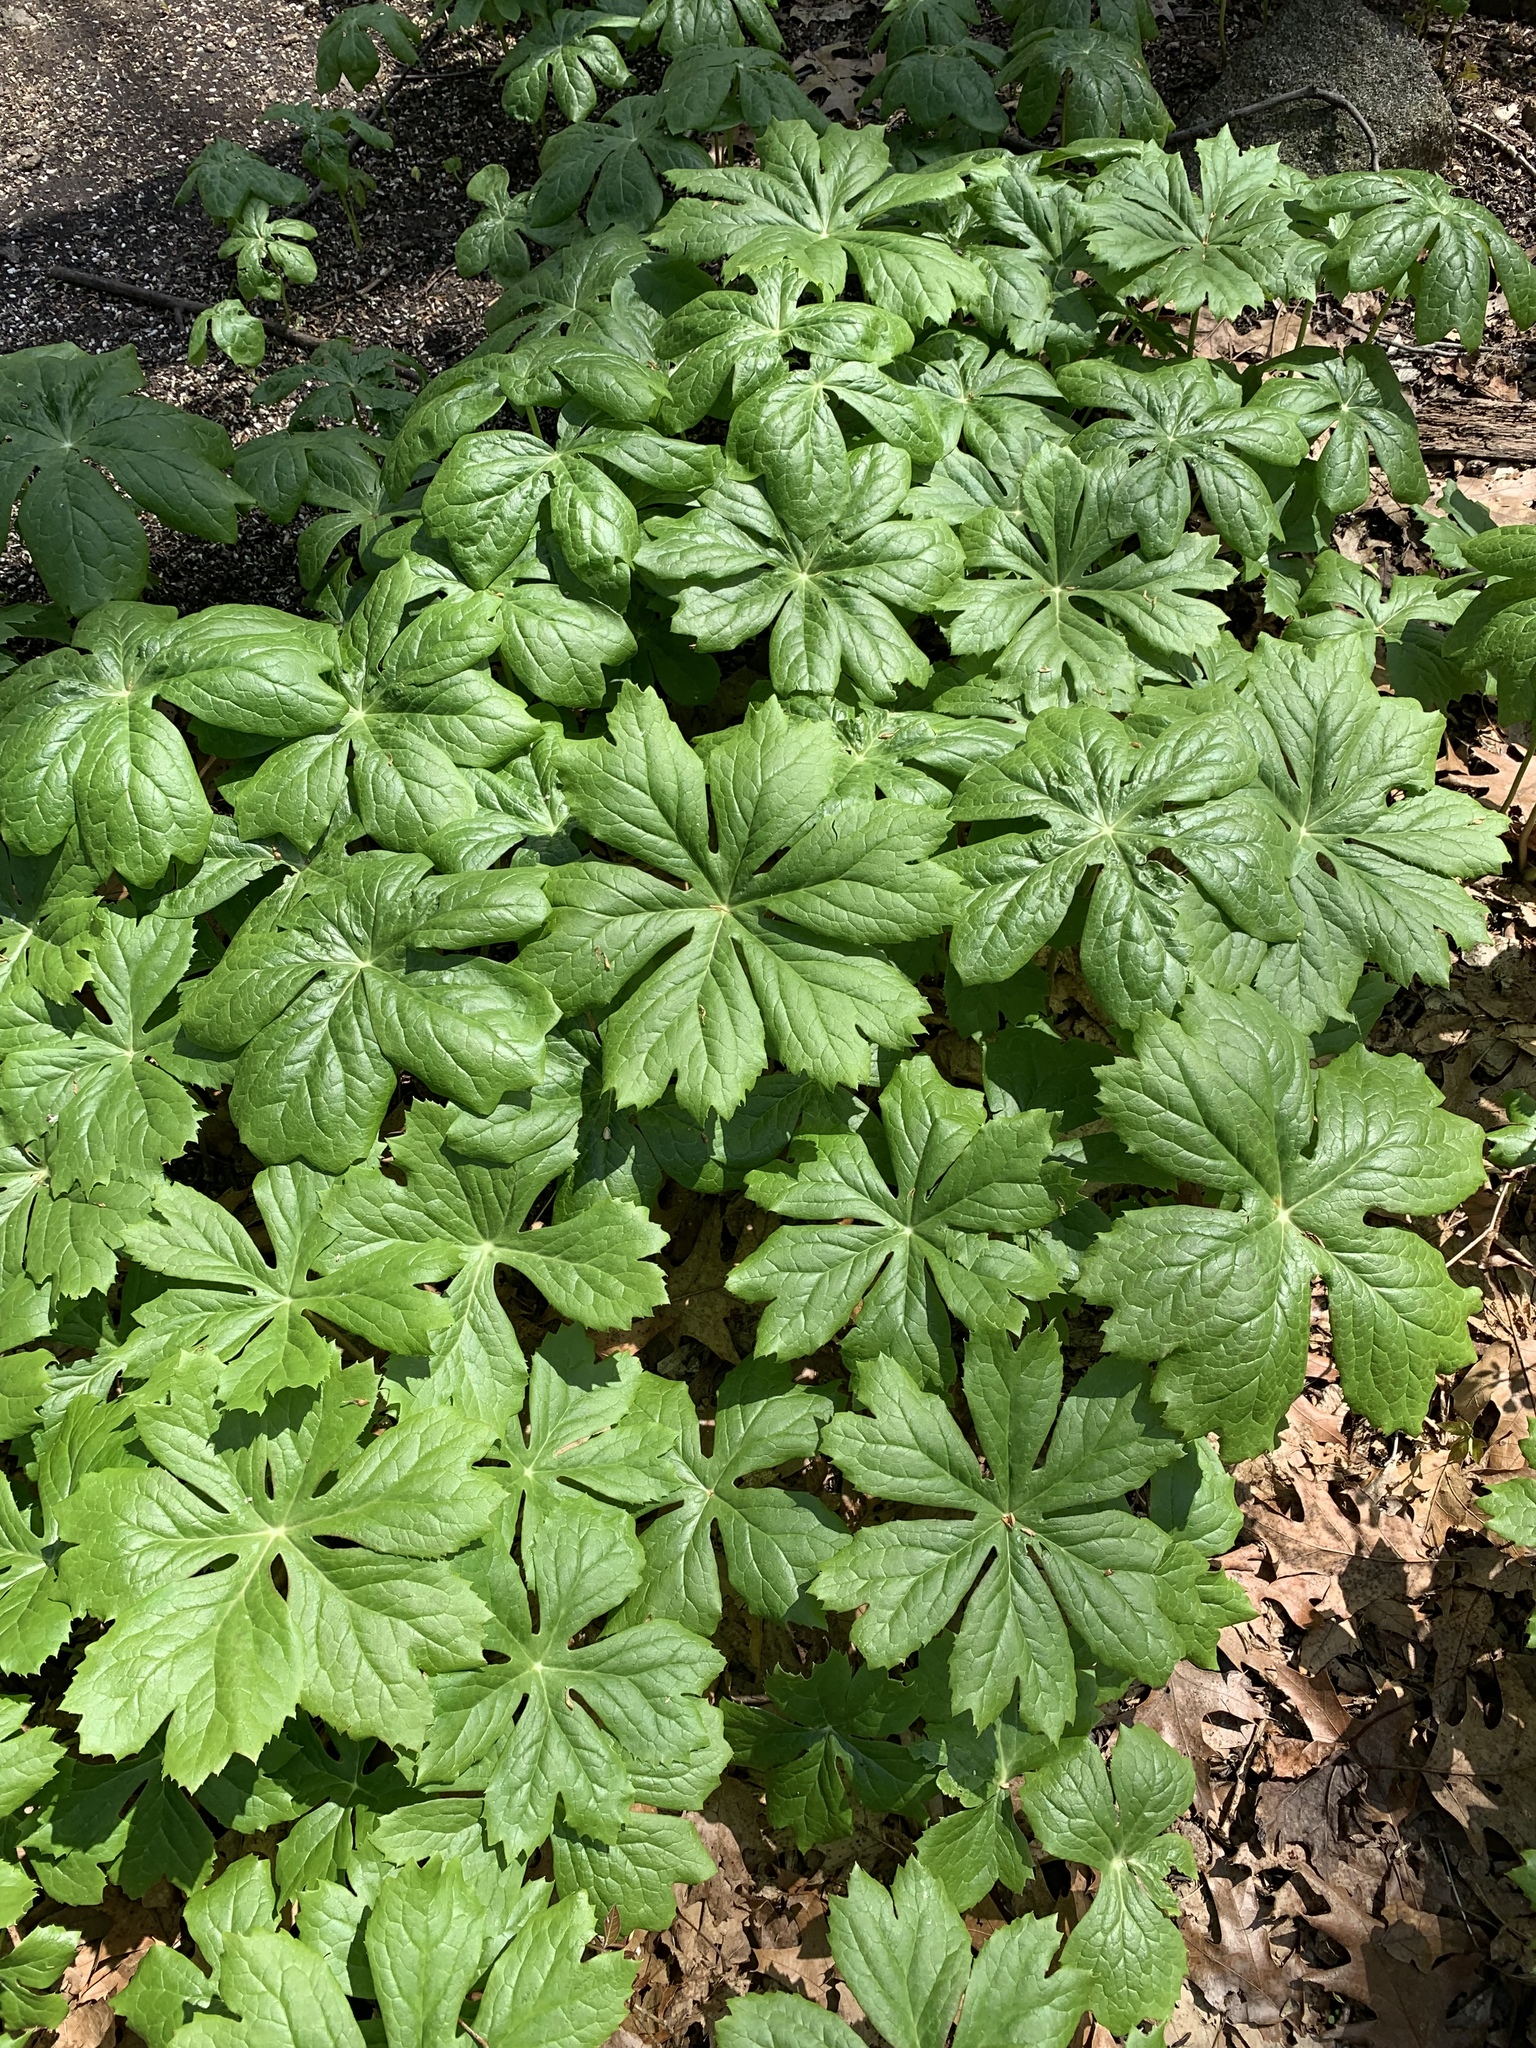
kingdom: Plantae
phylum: Tracheophyta
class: Magnoliopsida
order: Ranunculales
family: Berberidaceae
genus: Podophyllum
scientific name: Podophyllum peltatum
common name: Wild mandrake
